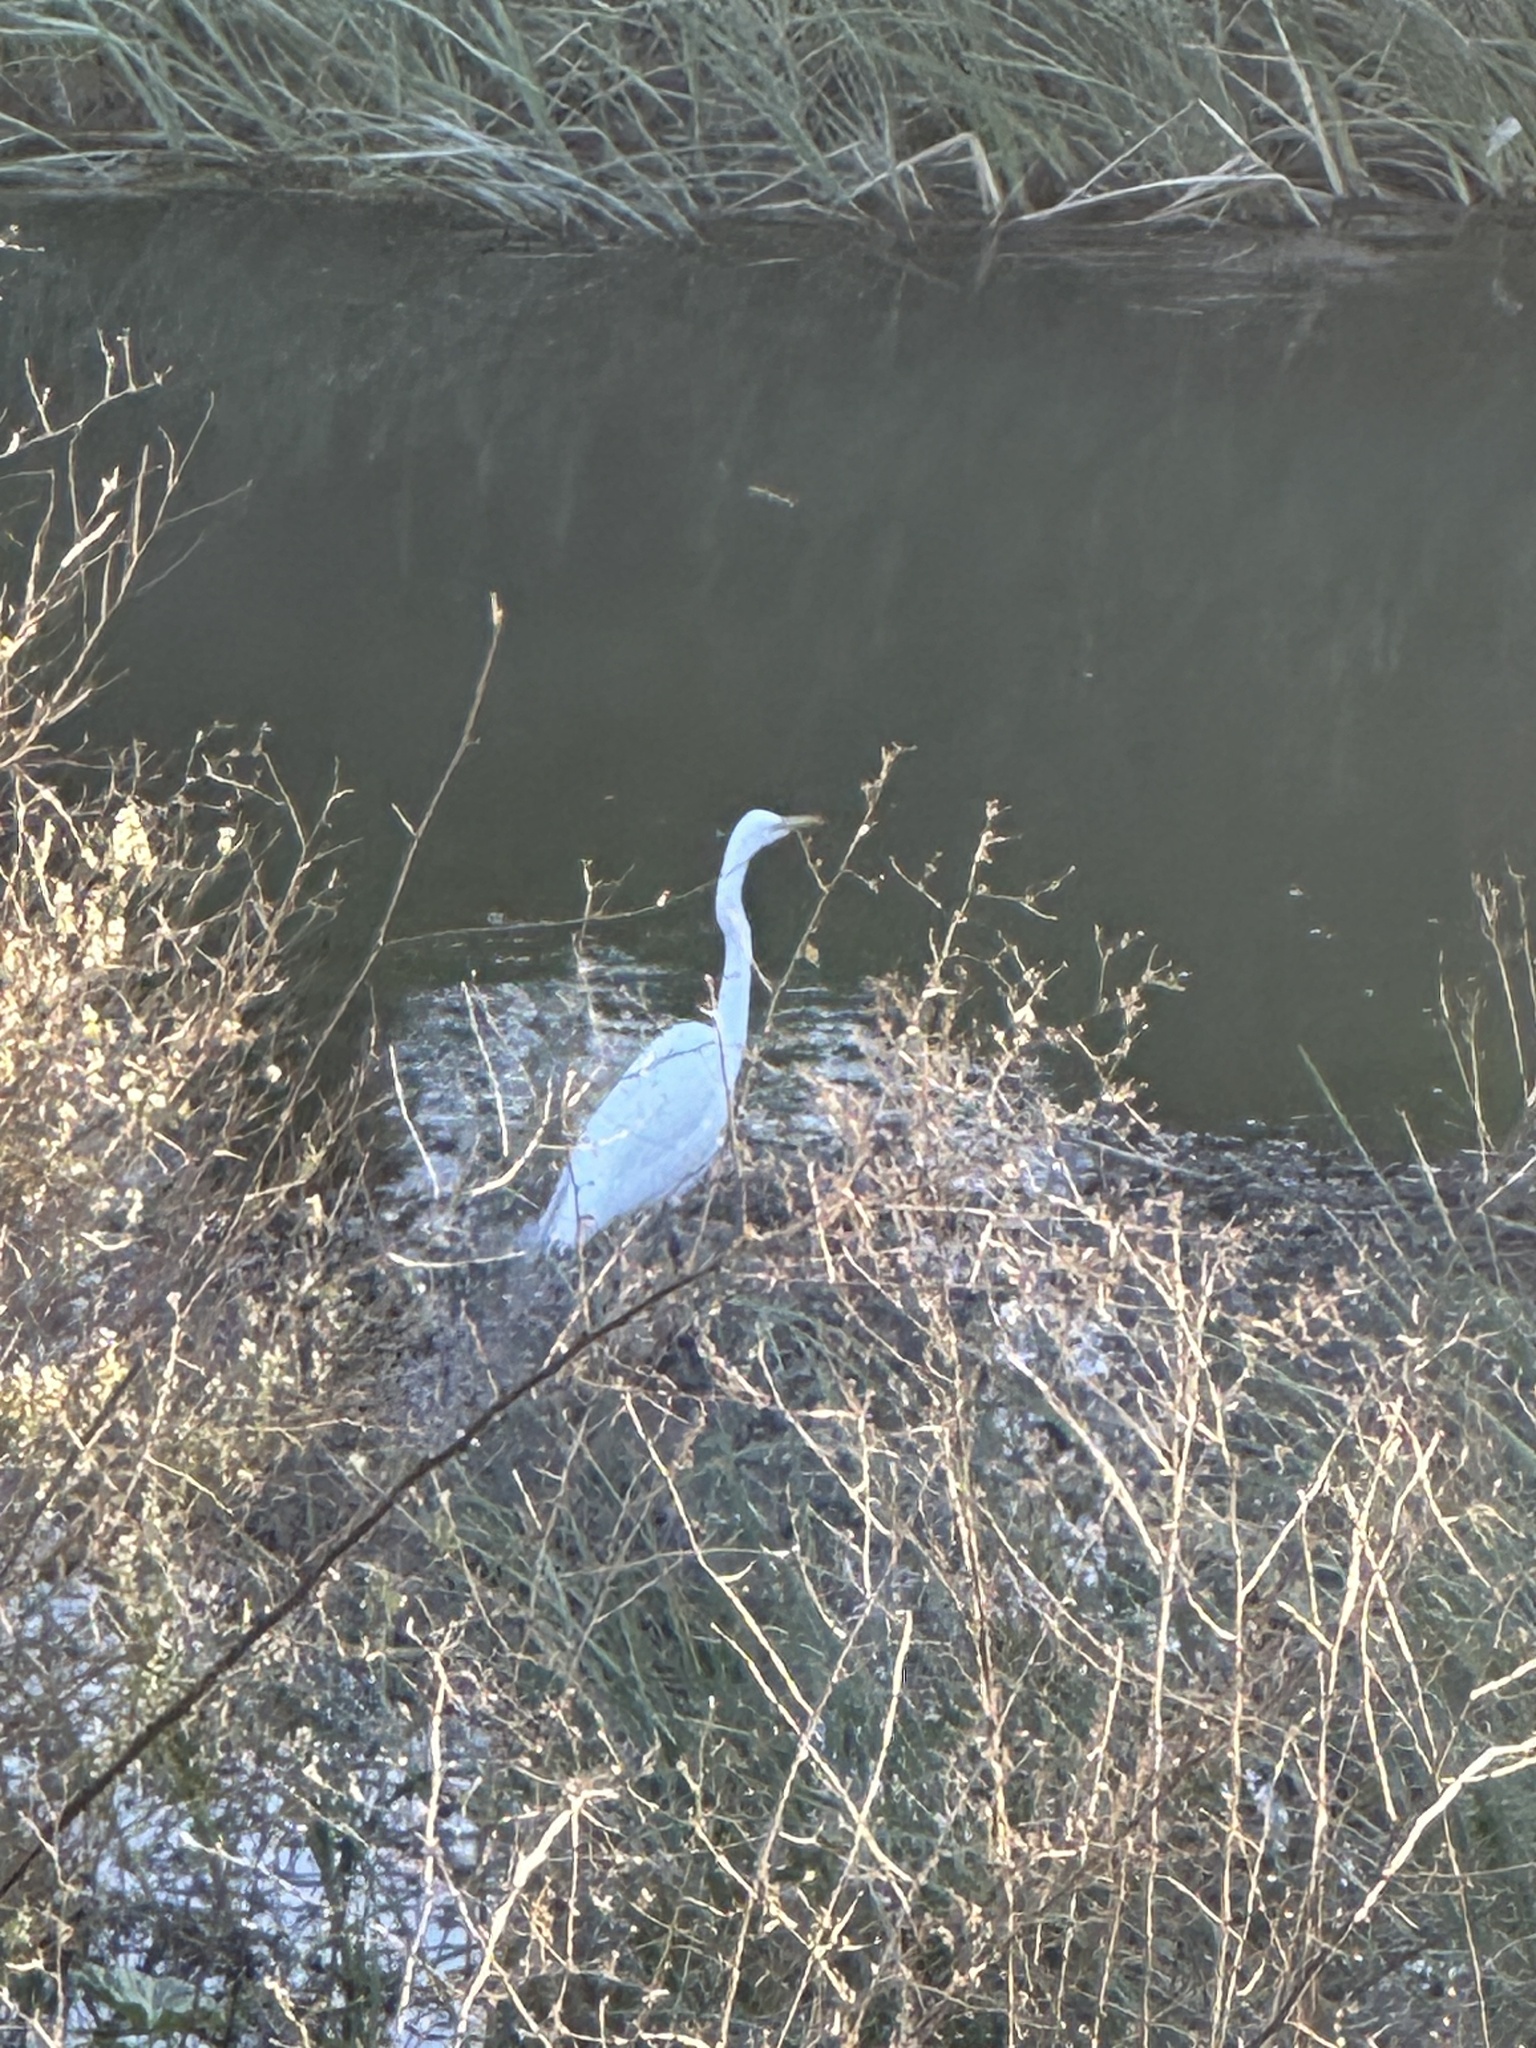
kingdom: Animalia
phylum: Chordata
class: Aves
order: Pelecaniformes
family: Ardeidae
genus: Ardea
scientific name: Ardea alba
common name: Great egret
